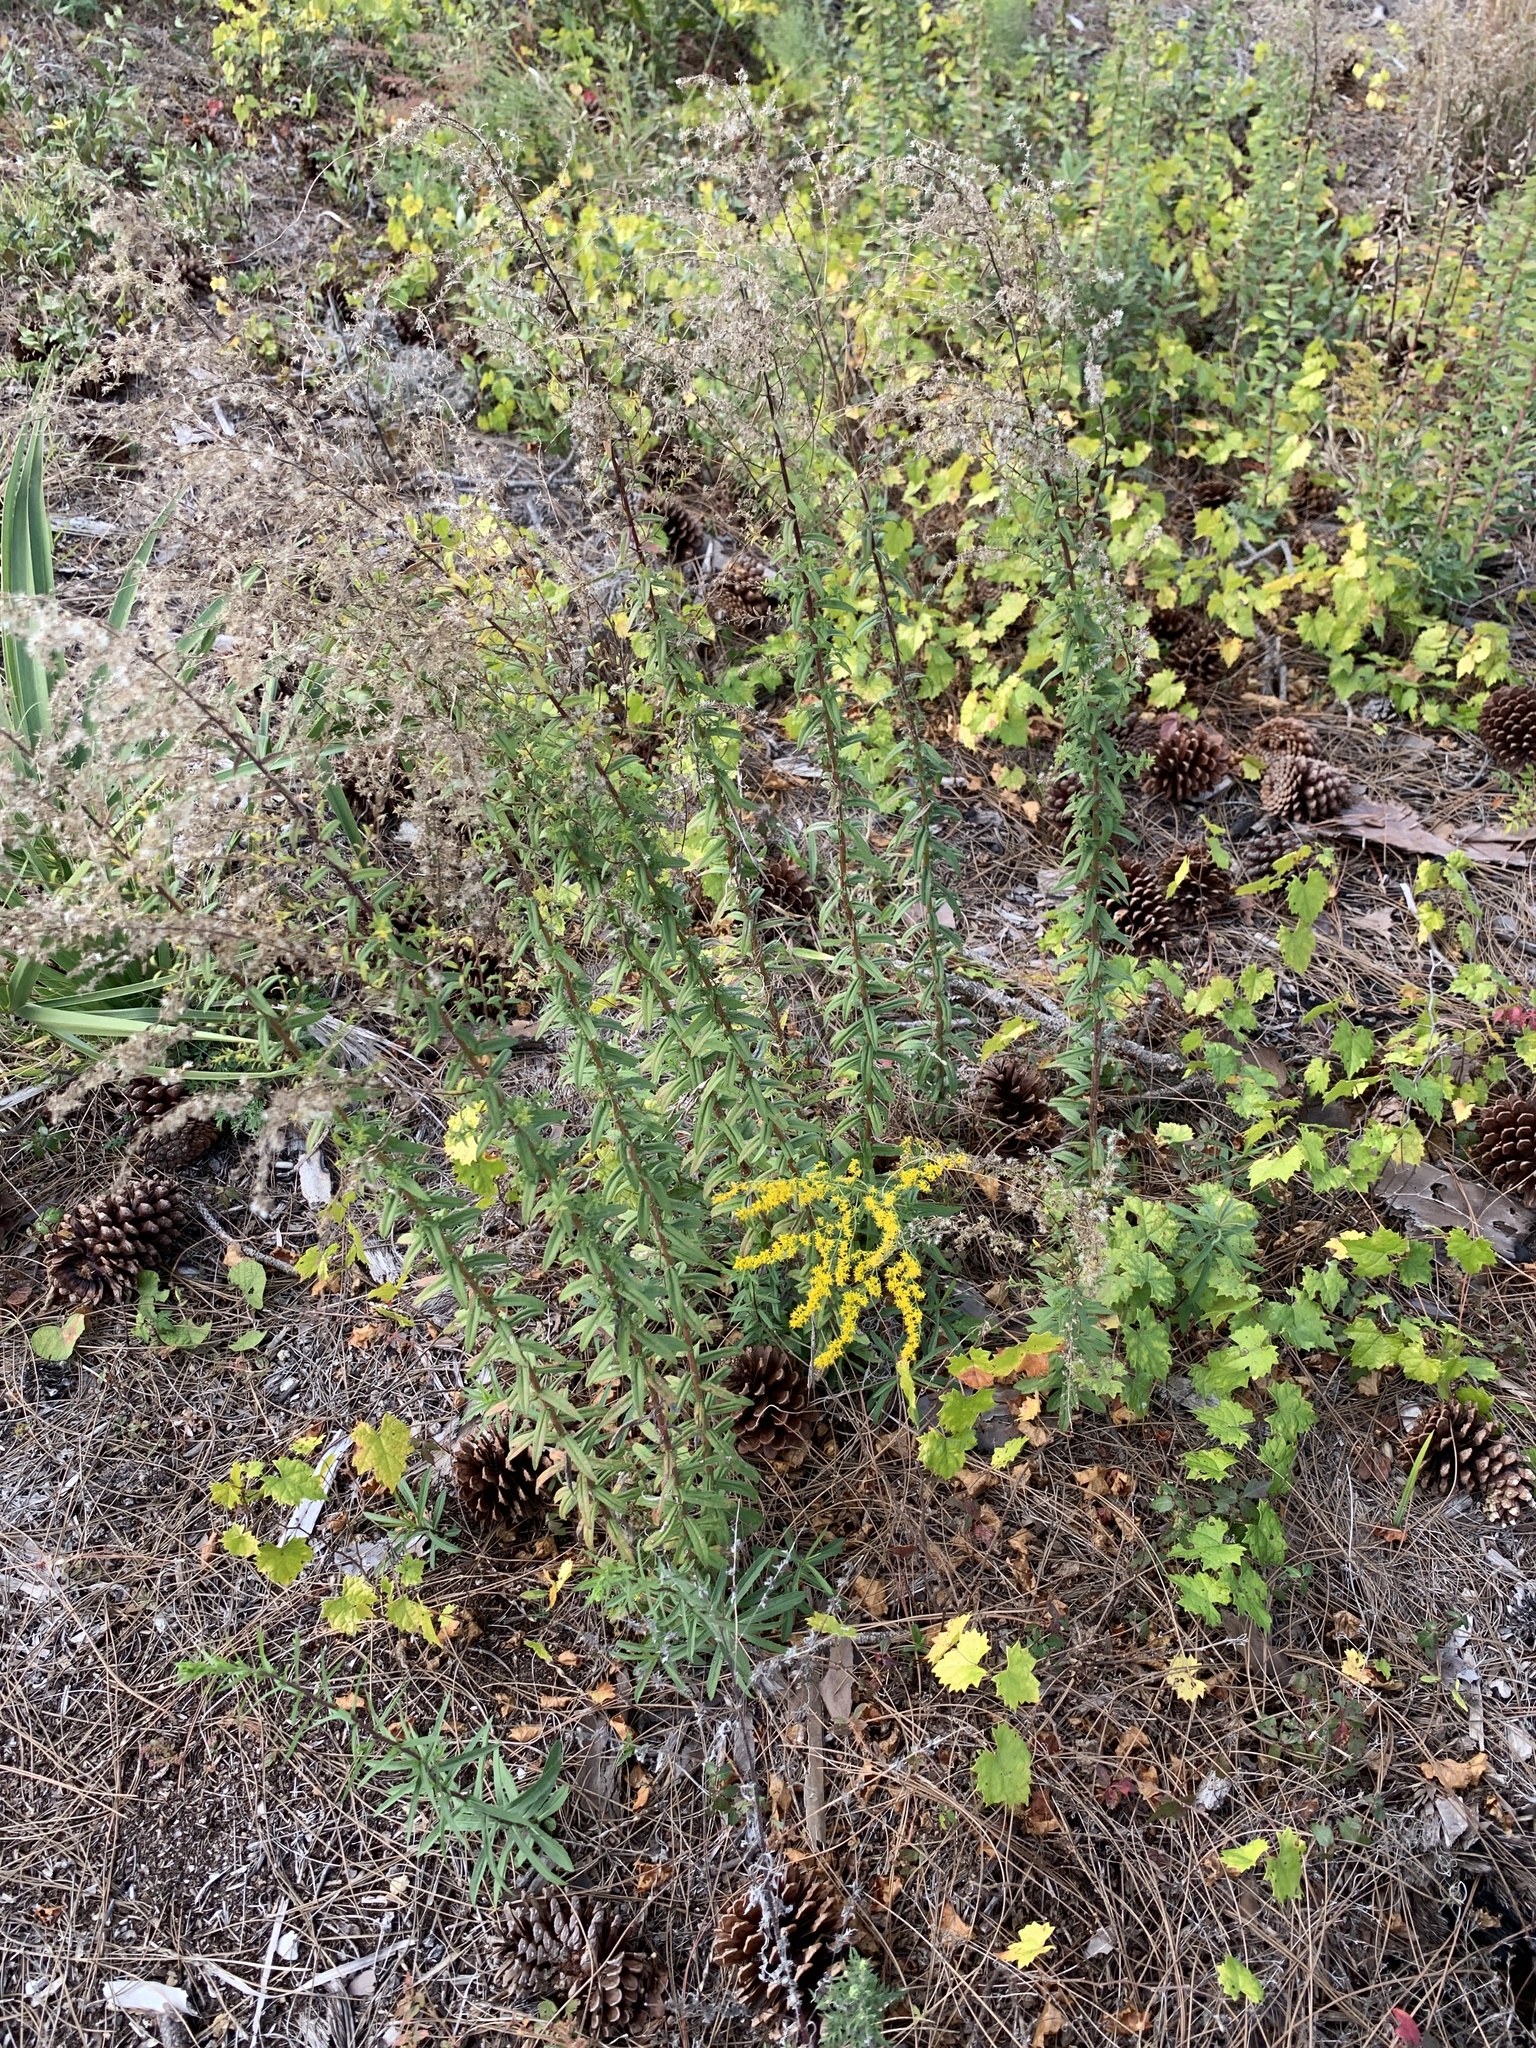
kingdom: Plantae
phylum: Tracheophyta
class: Magnoliopsida
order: Asterales
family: Asteraceae
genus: Solidago
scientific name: Solidago chapmanii
